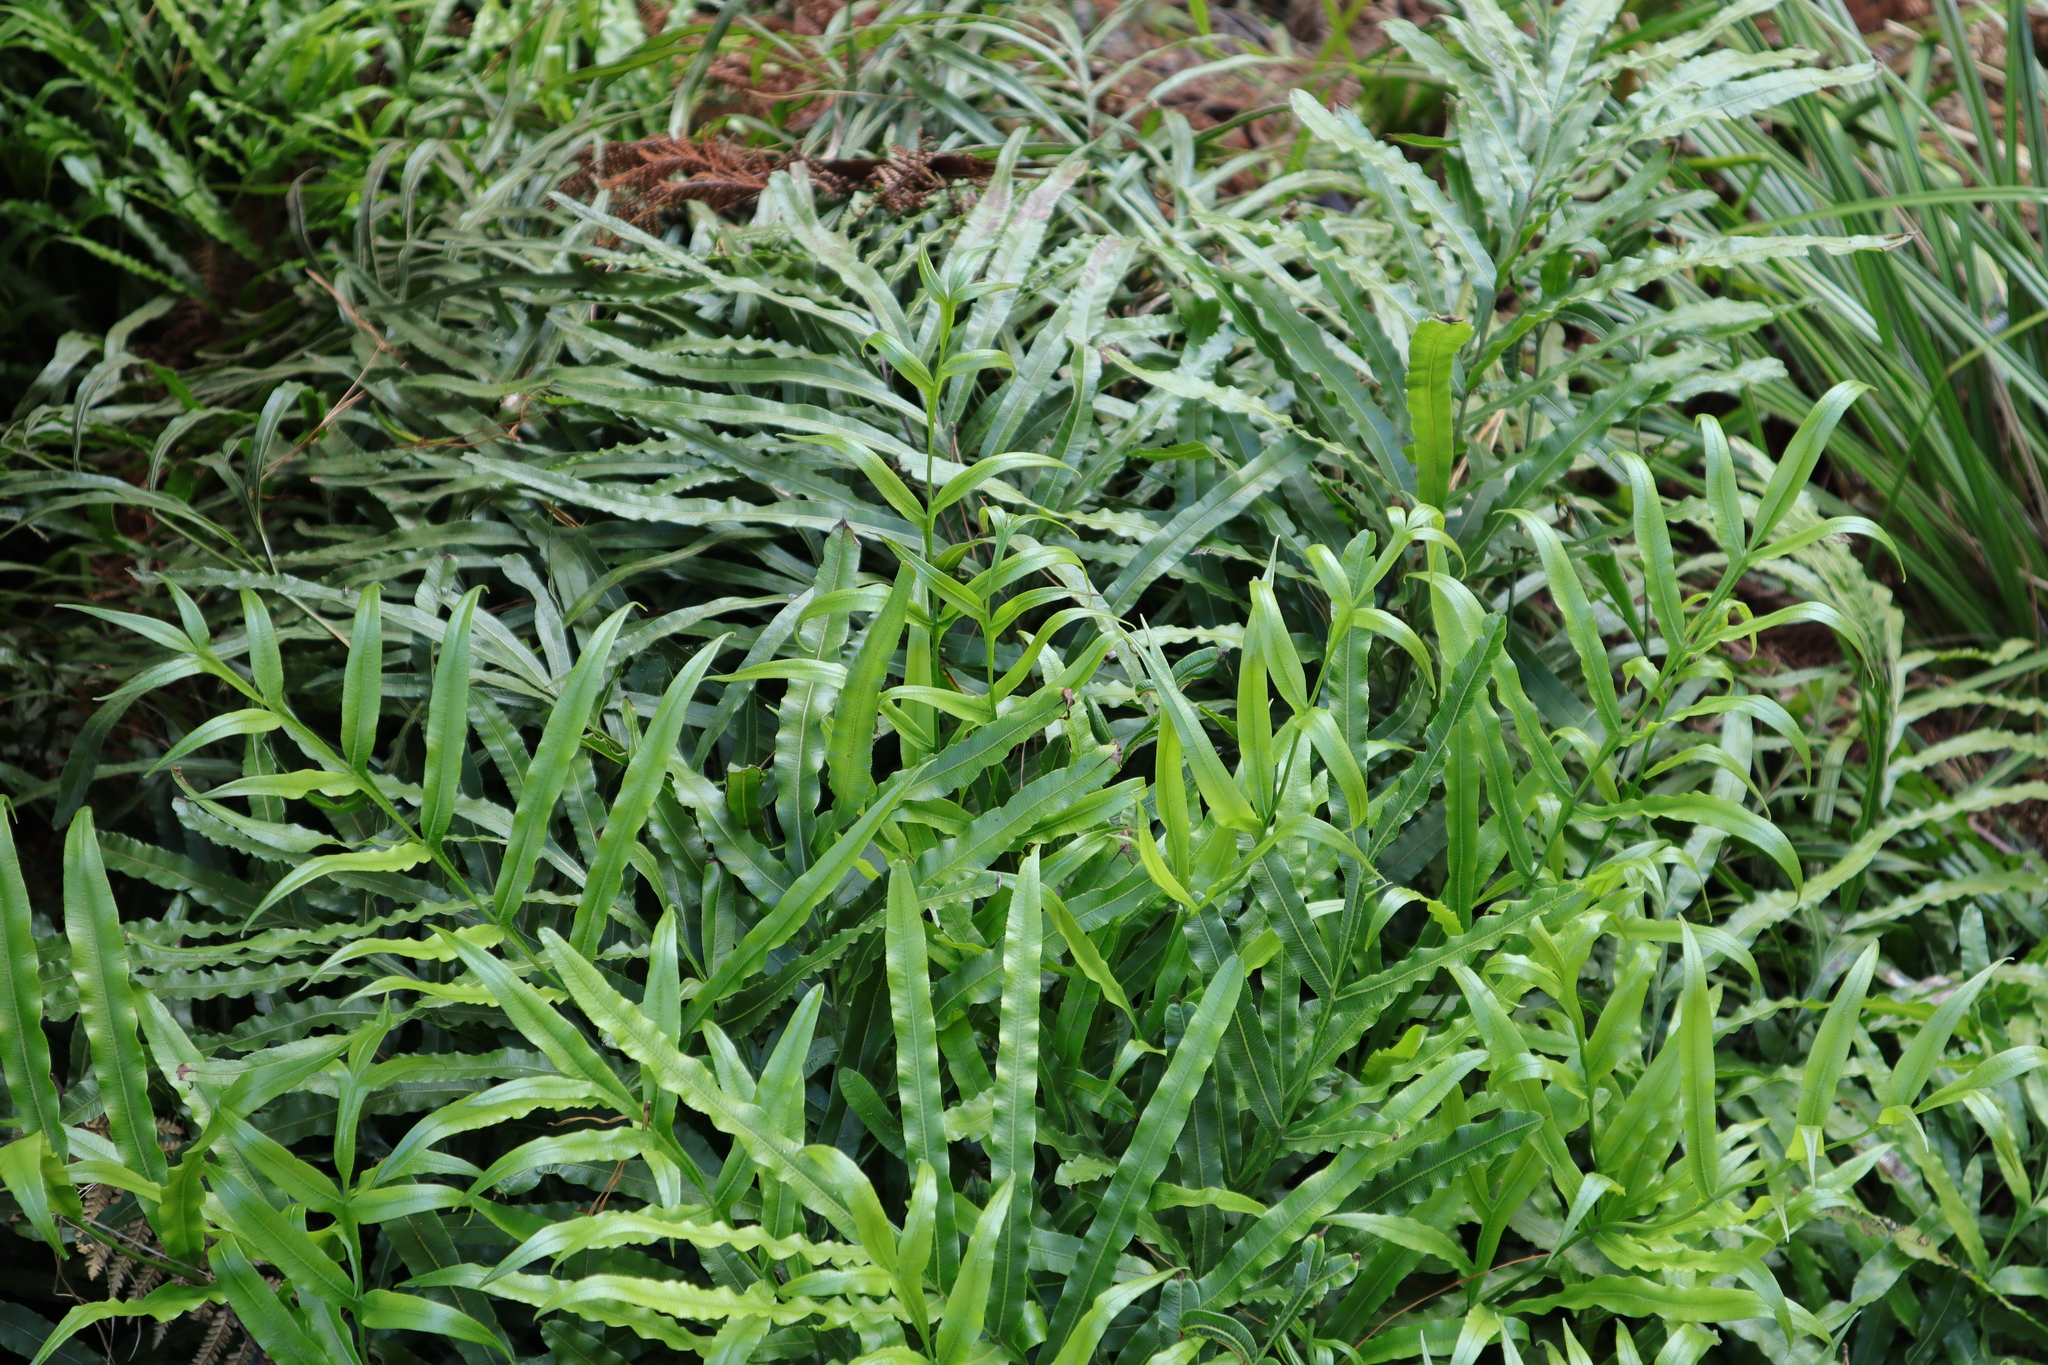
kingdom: Plantae
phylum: Tracheophyta
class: Polypodiopsida
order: Polypodiales
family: Pteridaceae
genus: Pteris
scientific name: Pteris cretica
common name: Ribbon fern
